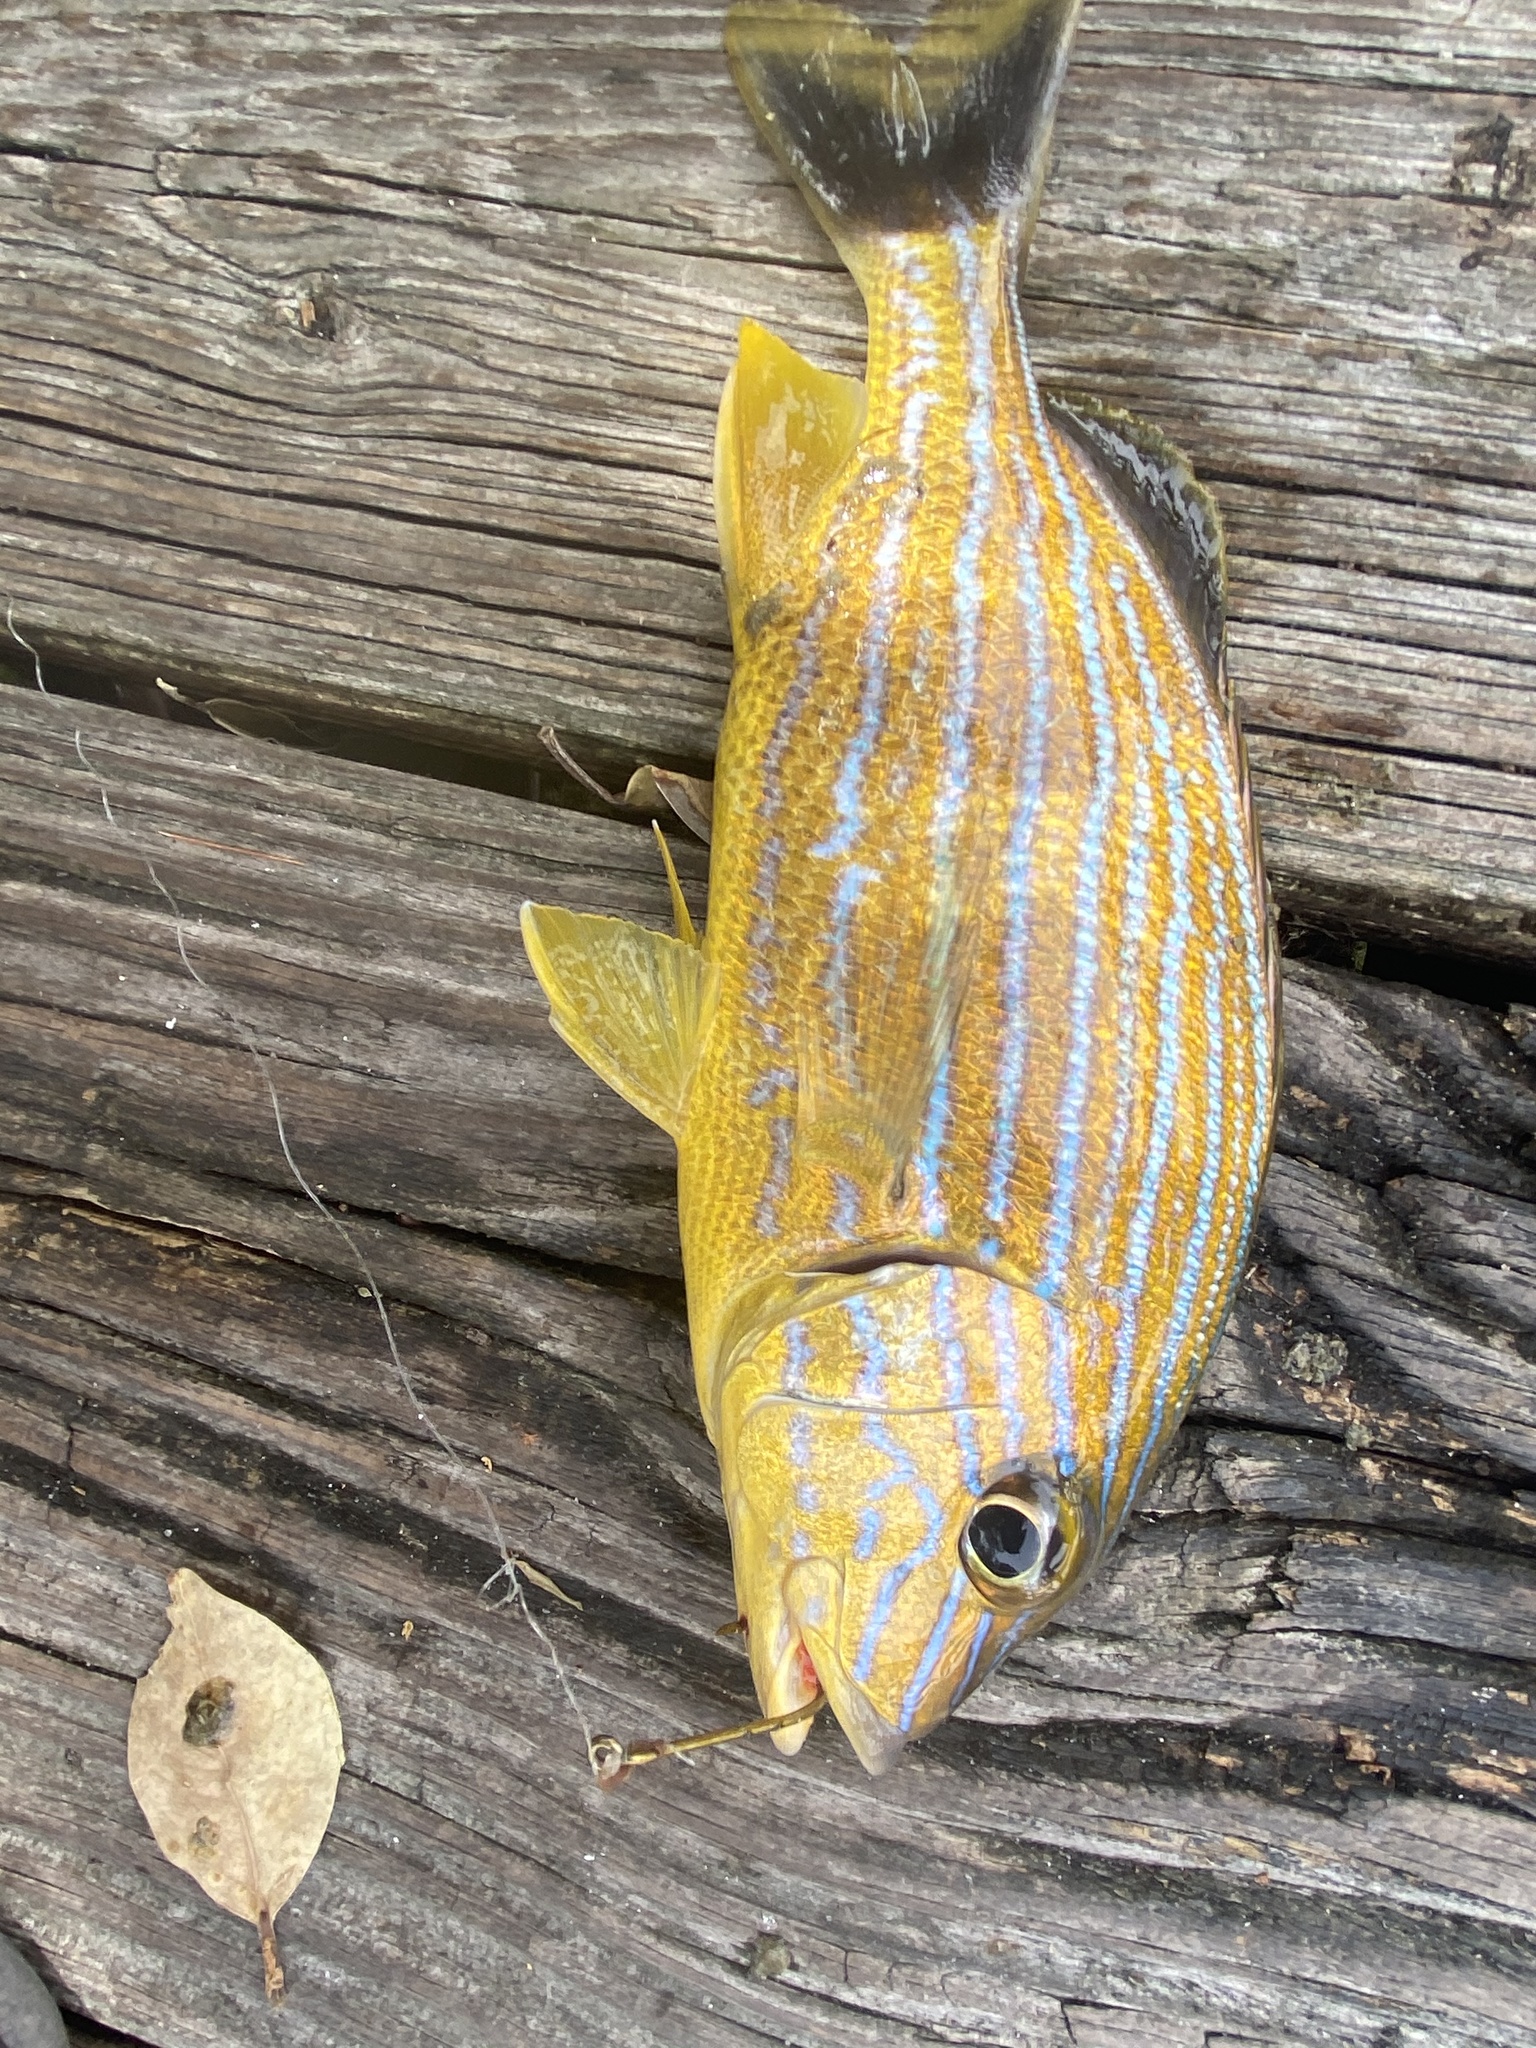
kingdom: Animalia
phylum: Chordata
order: Perciformes
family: Haemulidae
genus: Haemulon
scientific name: Haemulon sciurus
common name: Bluestriped grunt
